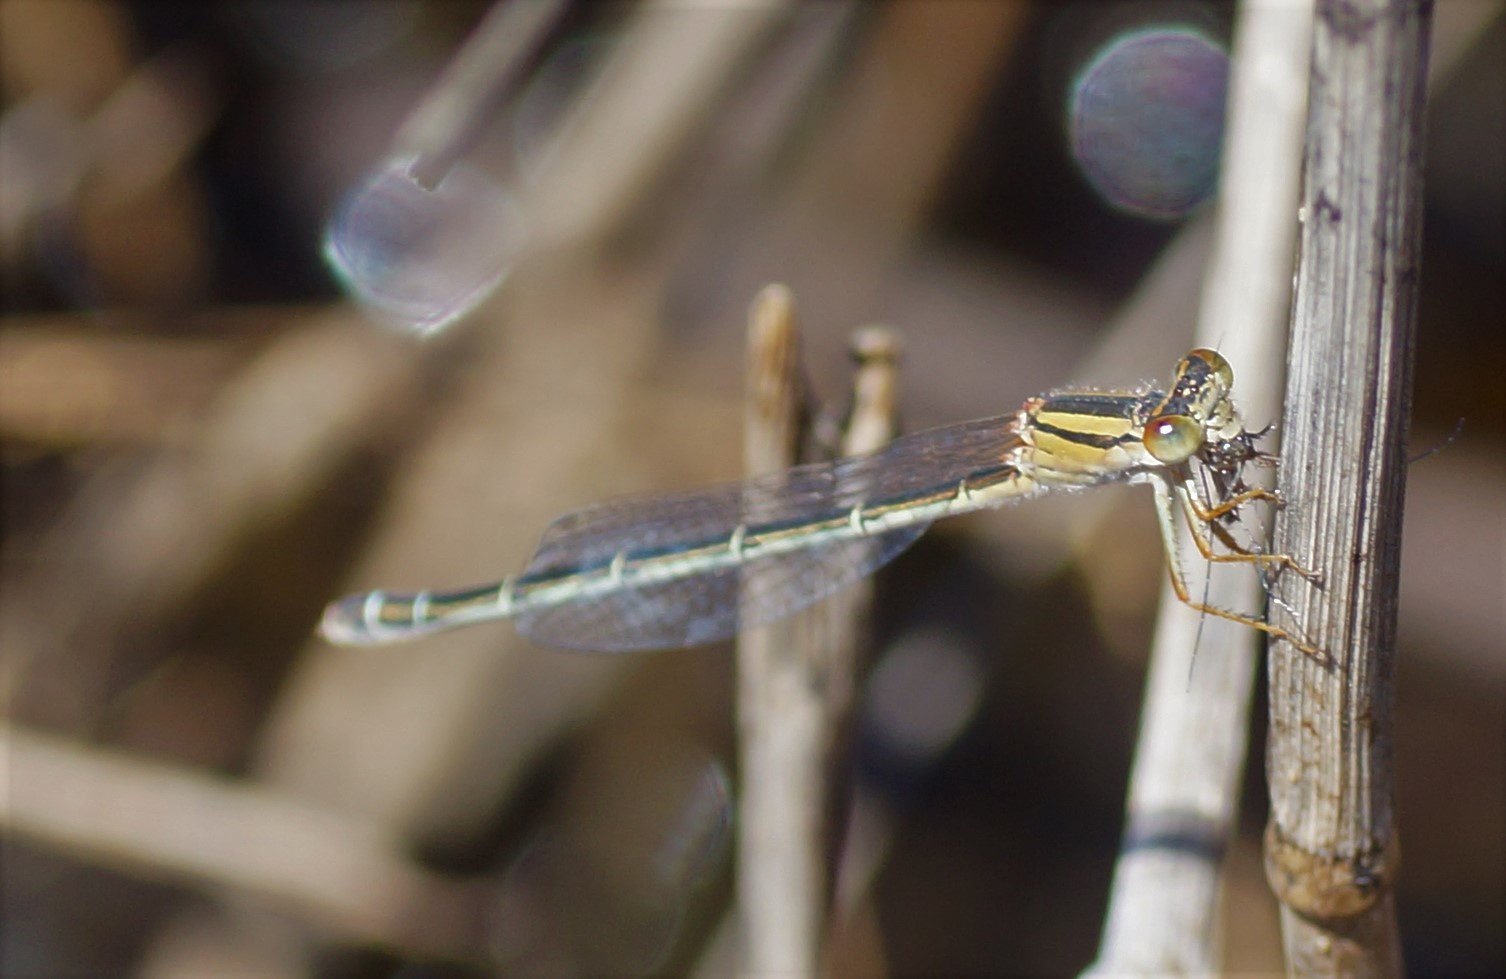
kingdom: Animalia
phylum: Arthropoda
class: Insecta
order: Odonata
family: Coenagrionidae
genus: Xanthagrion
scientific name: Xanthagrion erythroneurum
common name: Red and blue damsel
